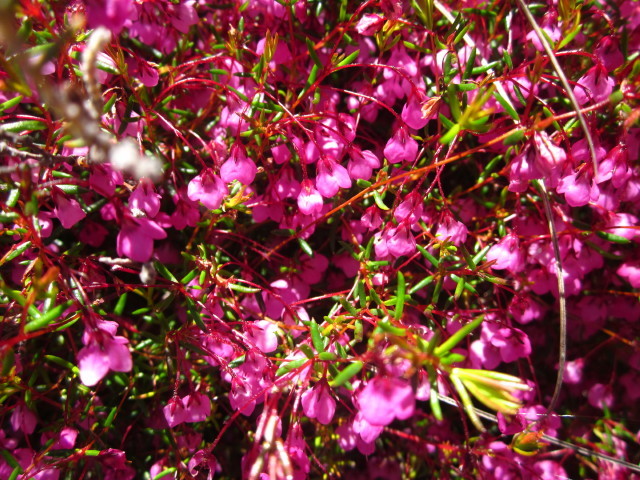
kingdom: Plantae
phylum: Tracheophyta
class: Magnoliopsida
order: Ericales
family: Ericaceae
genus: Erica
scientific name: Erica tetrathecoides
